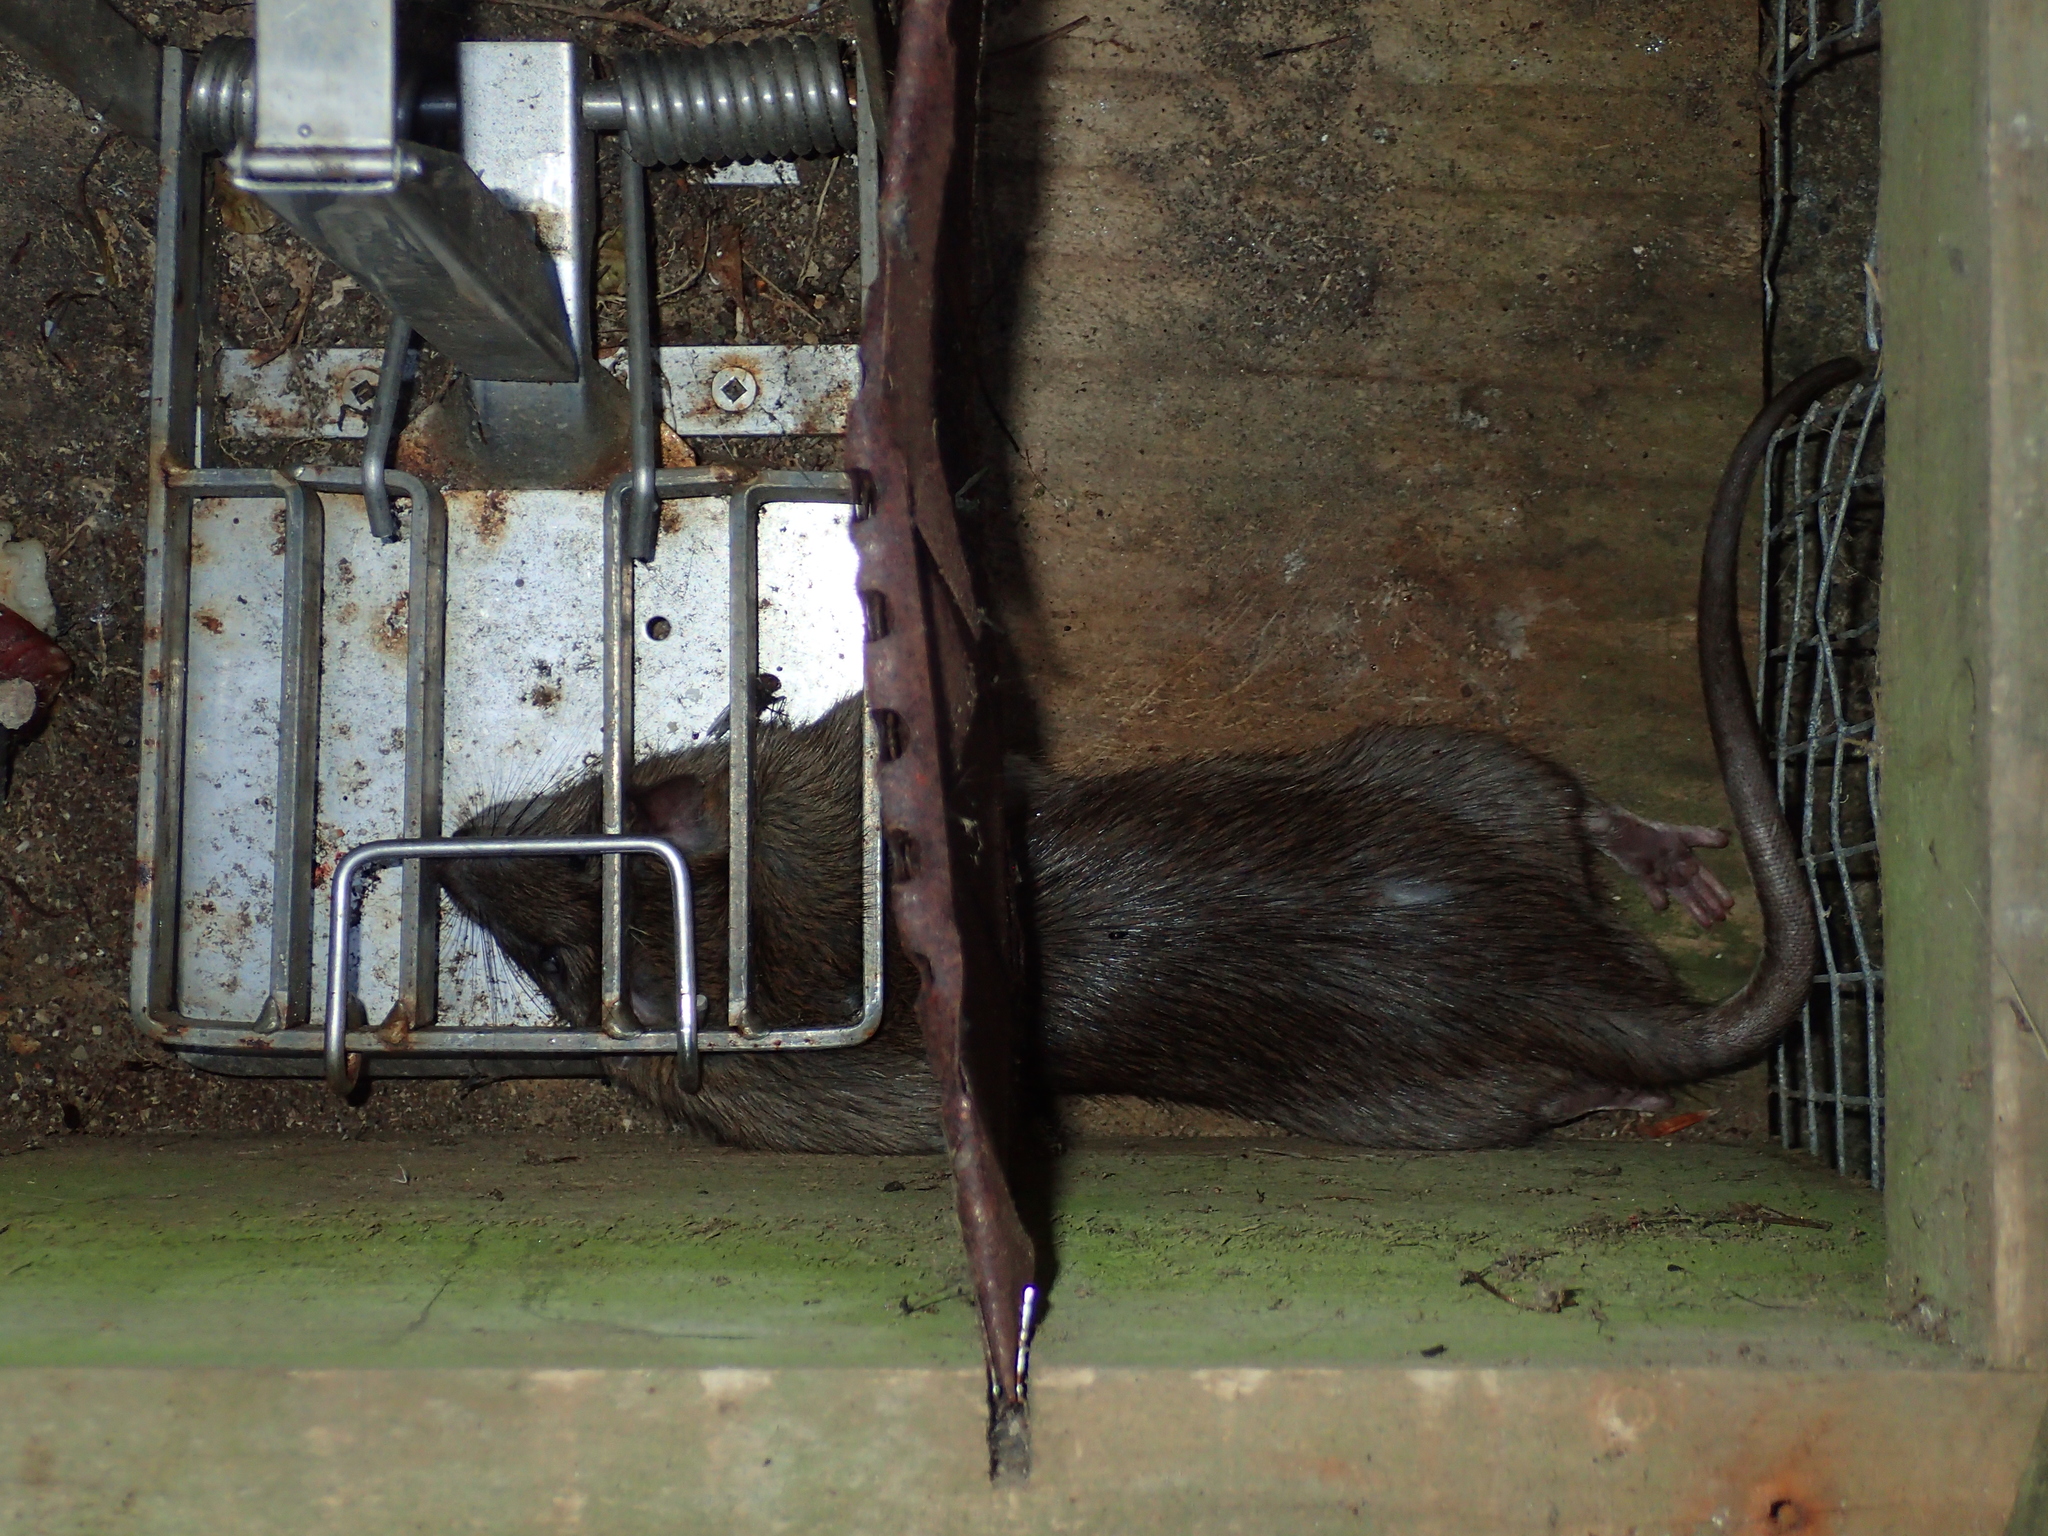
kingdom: Animalia
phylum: Chordata
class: Mammalia
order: Rodentia
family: Muridae
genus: Rattus
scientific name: Rattus norvegicus
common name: Brown rat
